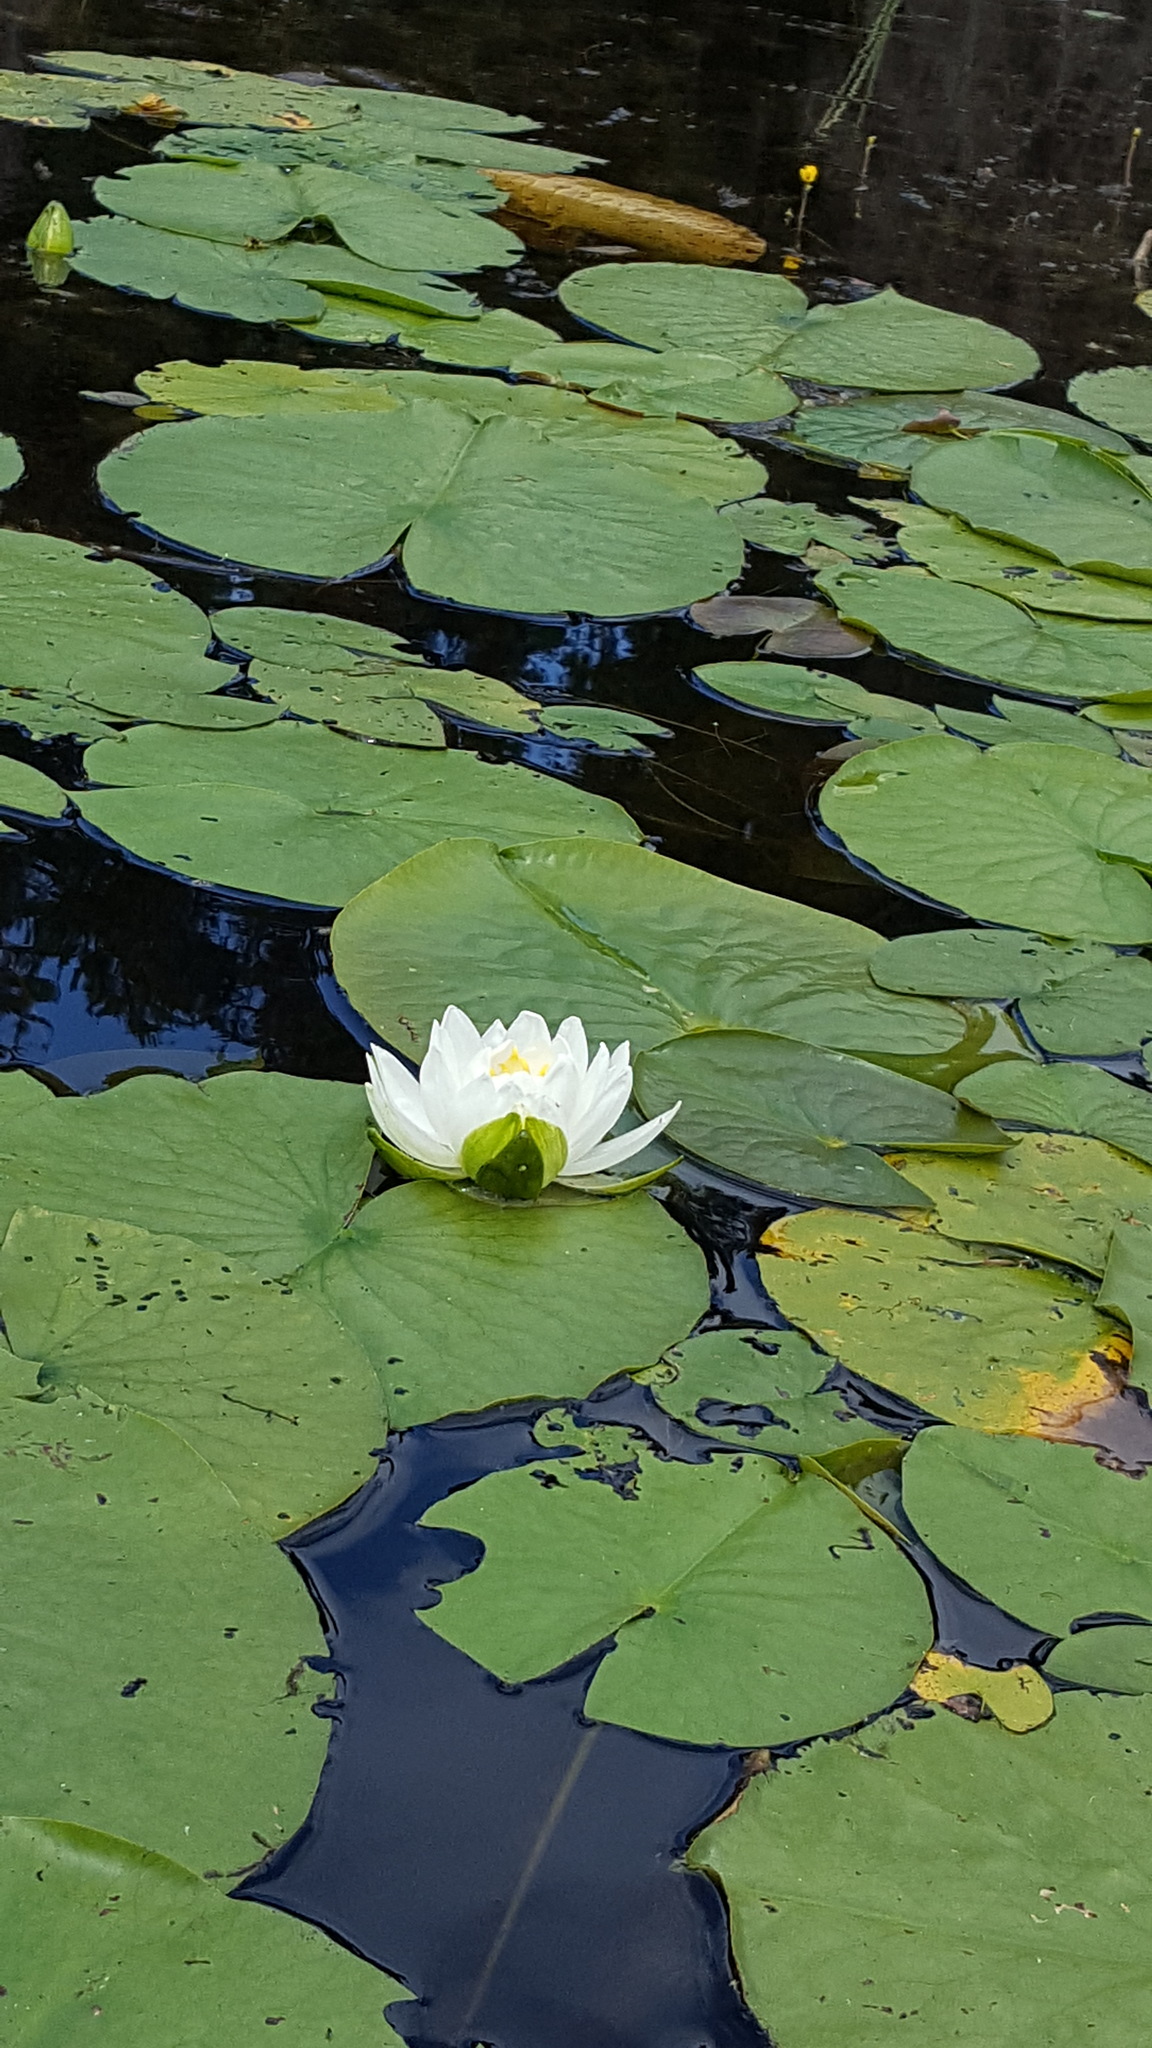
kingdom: Plantae
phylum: Tracheophyta
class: Magnoliopsida
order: Nymphaeales
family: Nymphaeaceae
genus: Nymphaea
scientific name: Nymphaea odorata
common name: Fragrant water-lily
